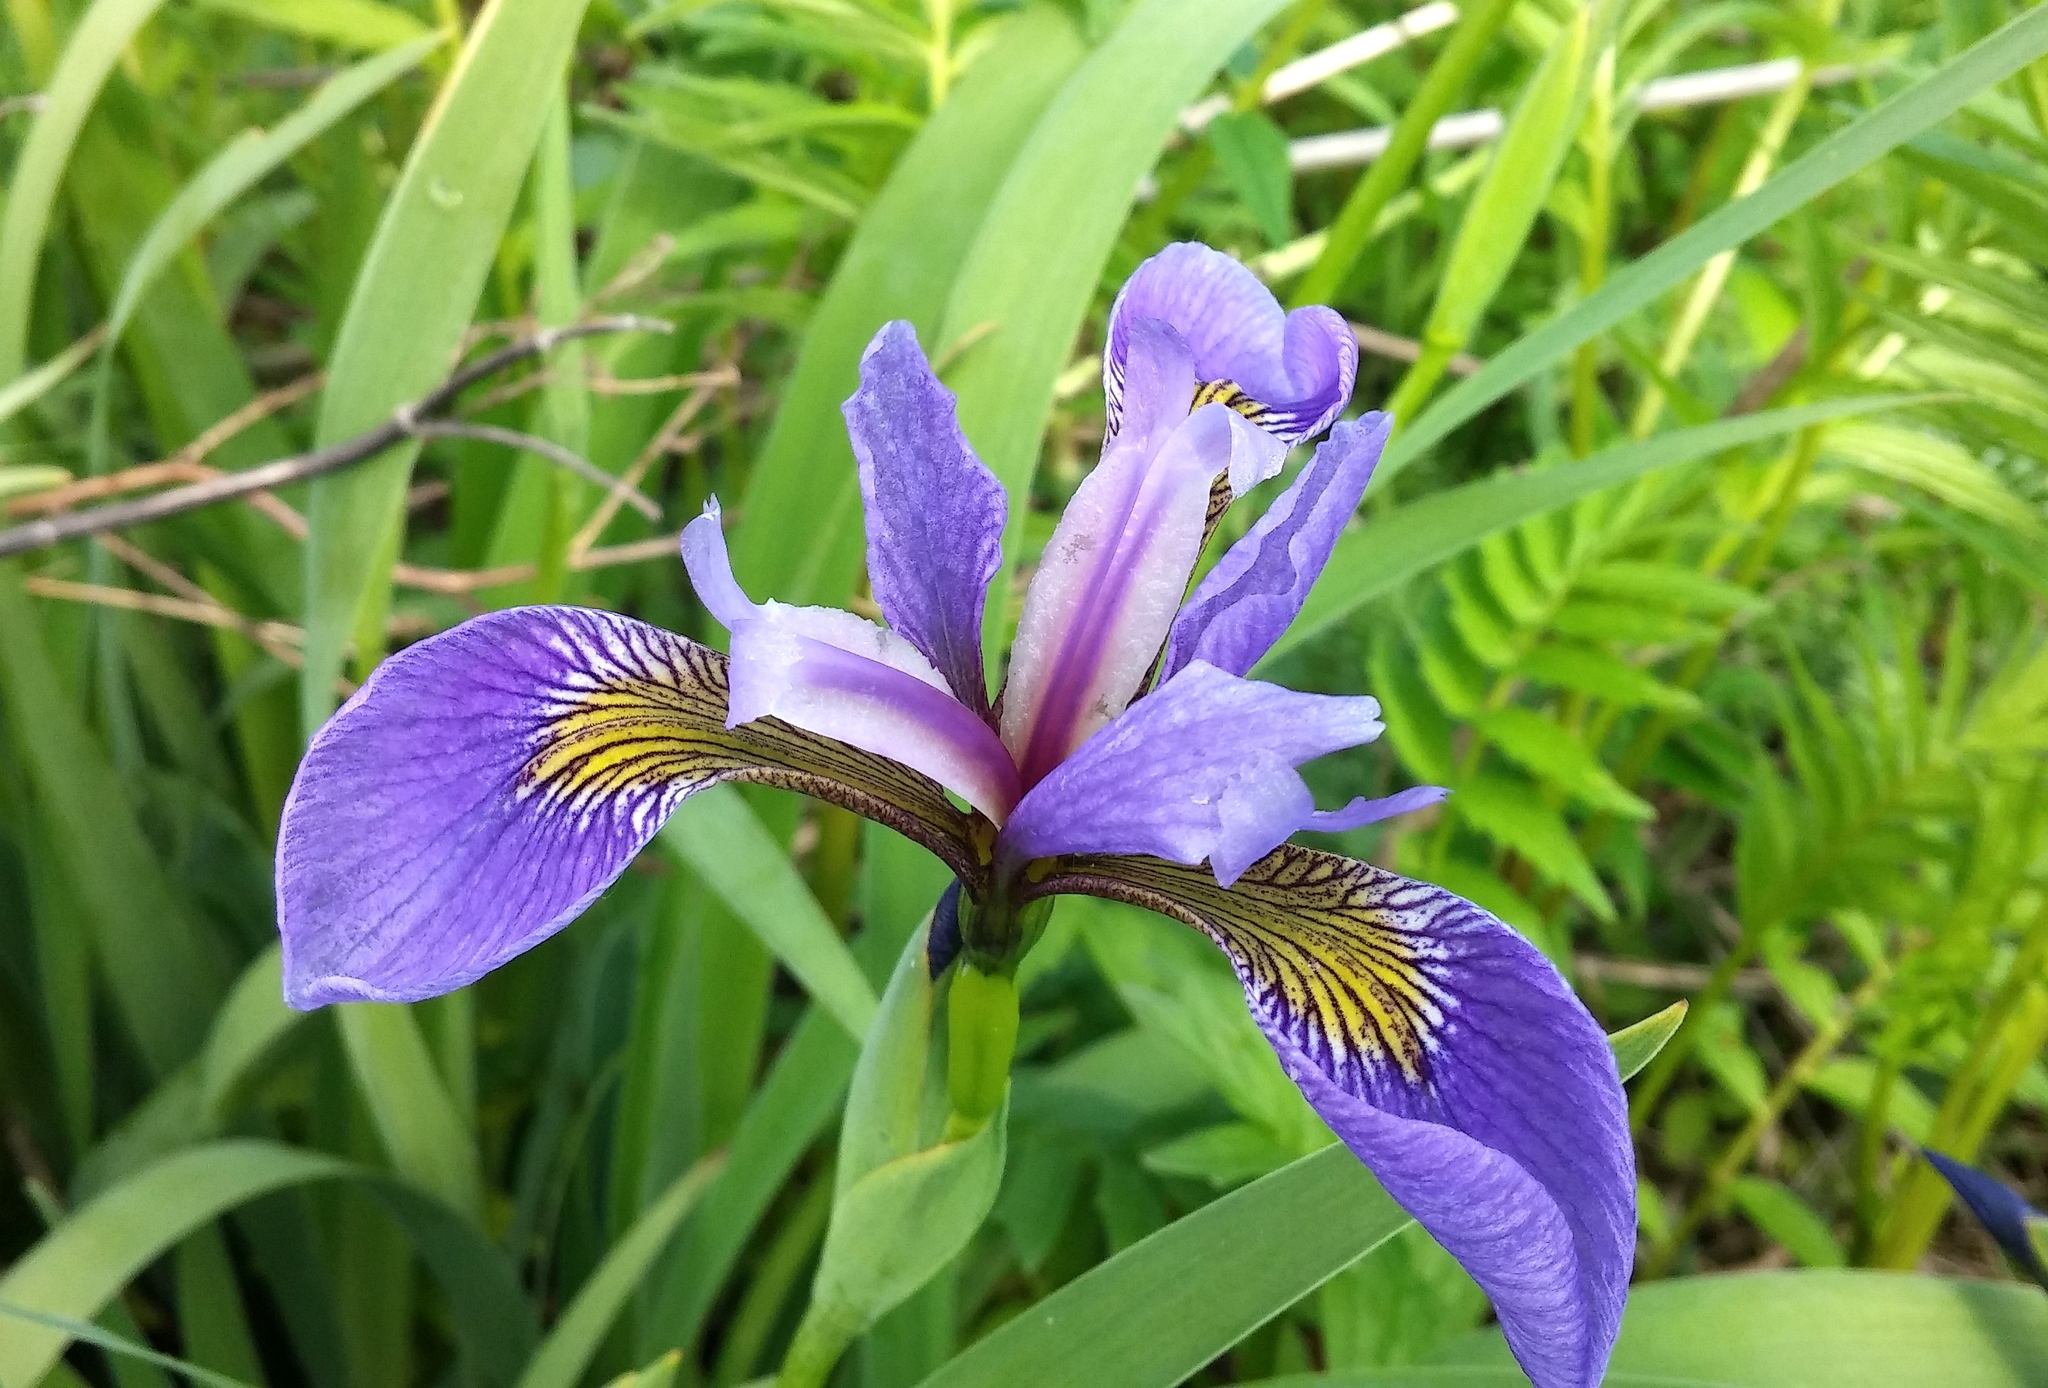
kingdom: Plantae
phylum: Tracheophyta
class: Liliopsida
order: Asparagales
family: Iridaceae
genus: Iris
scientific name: Iris versicolor
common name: Purple iris
